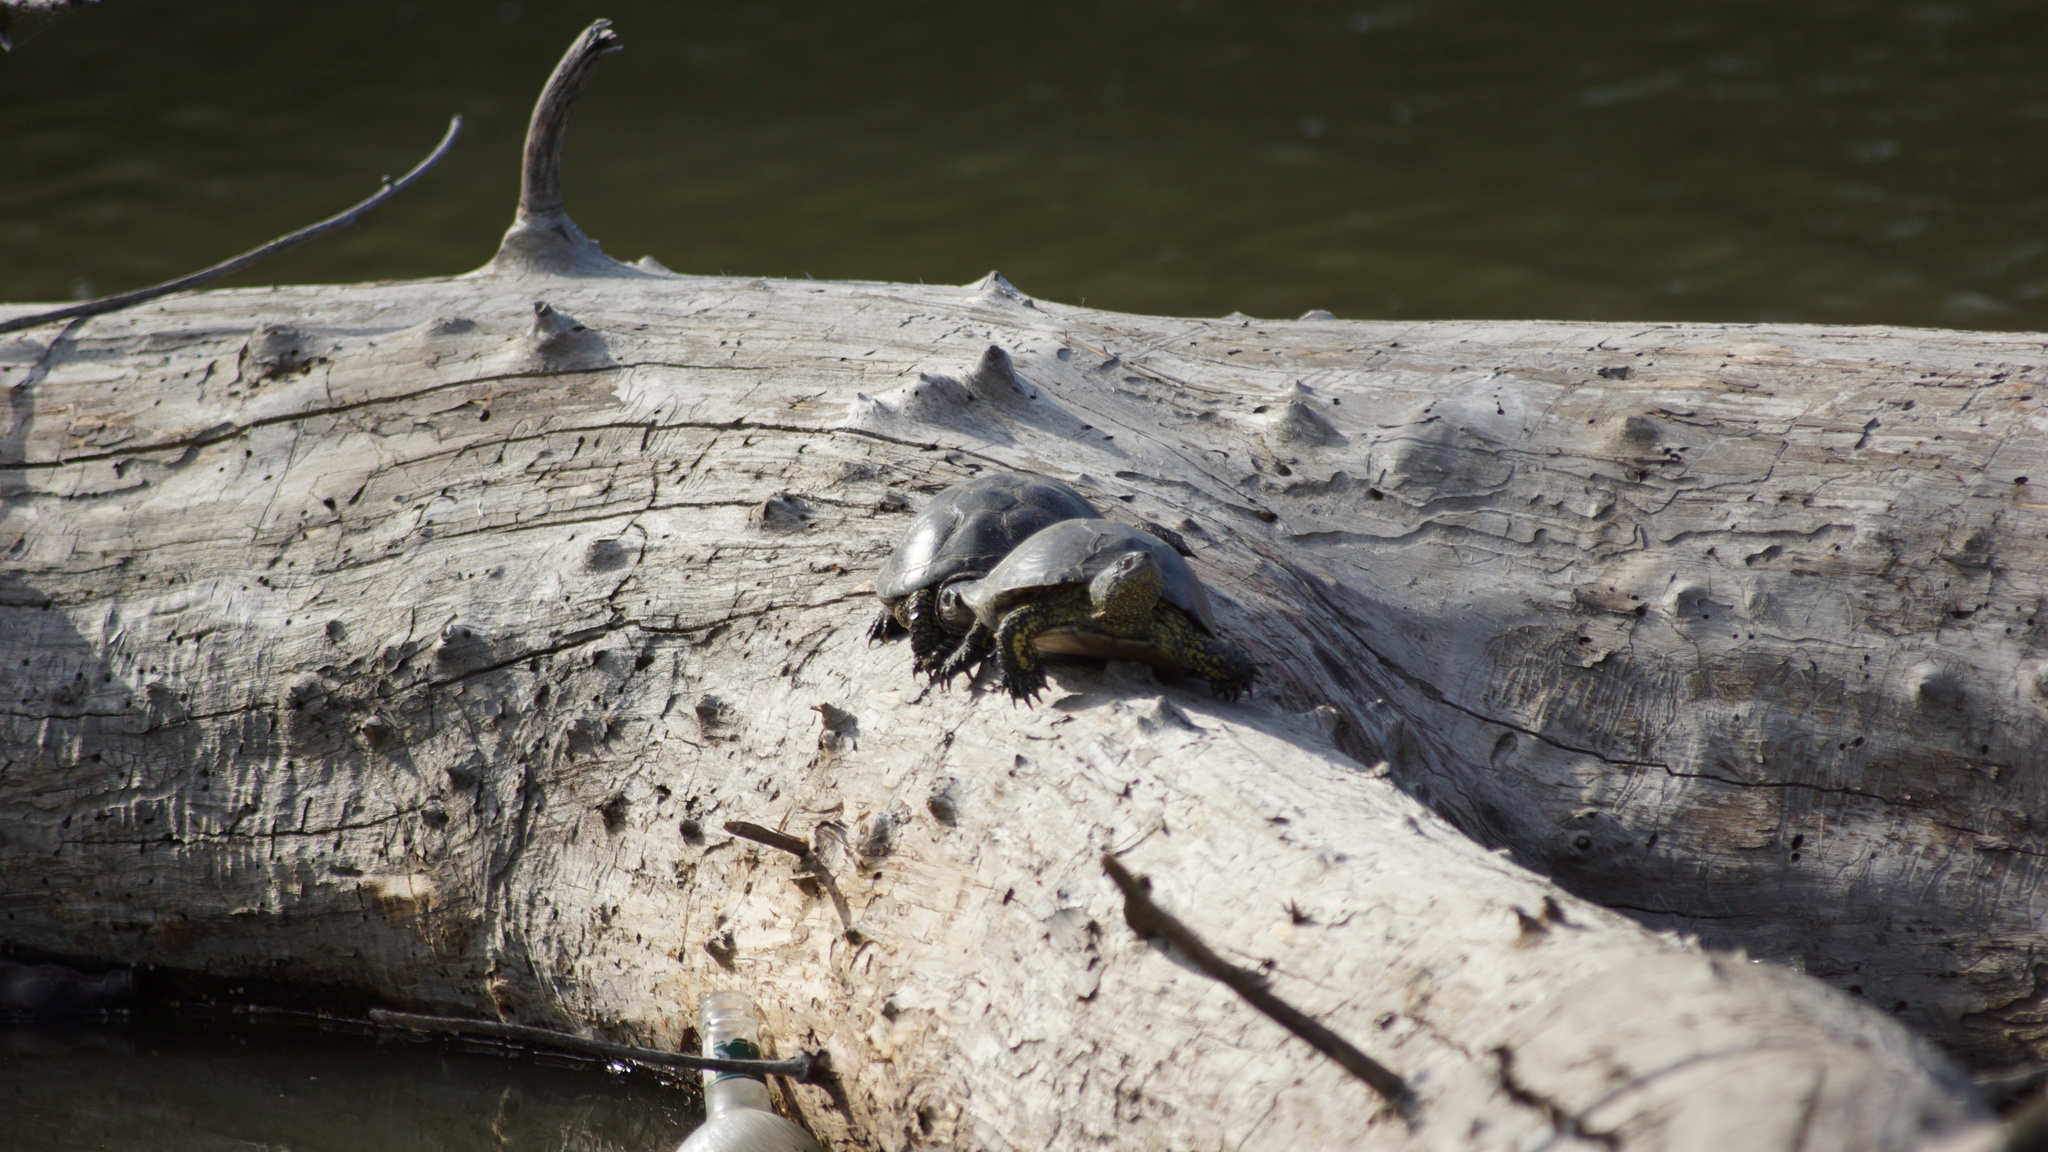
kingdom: Animalia
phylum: Chordata
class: Testudines
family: Emydidae
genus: Emys
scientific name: Emys orbicularis
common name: European pond turtle
